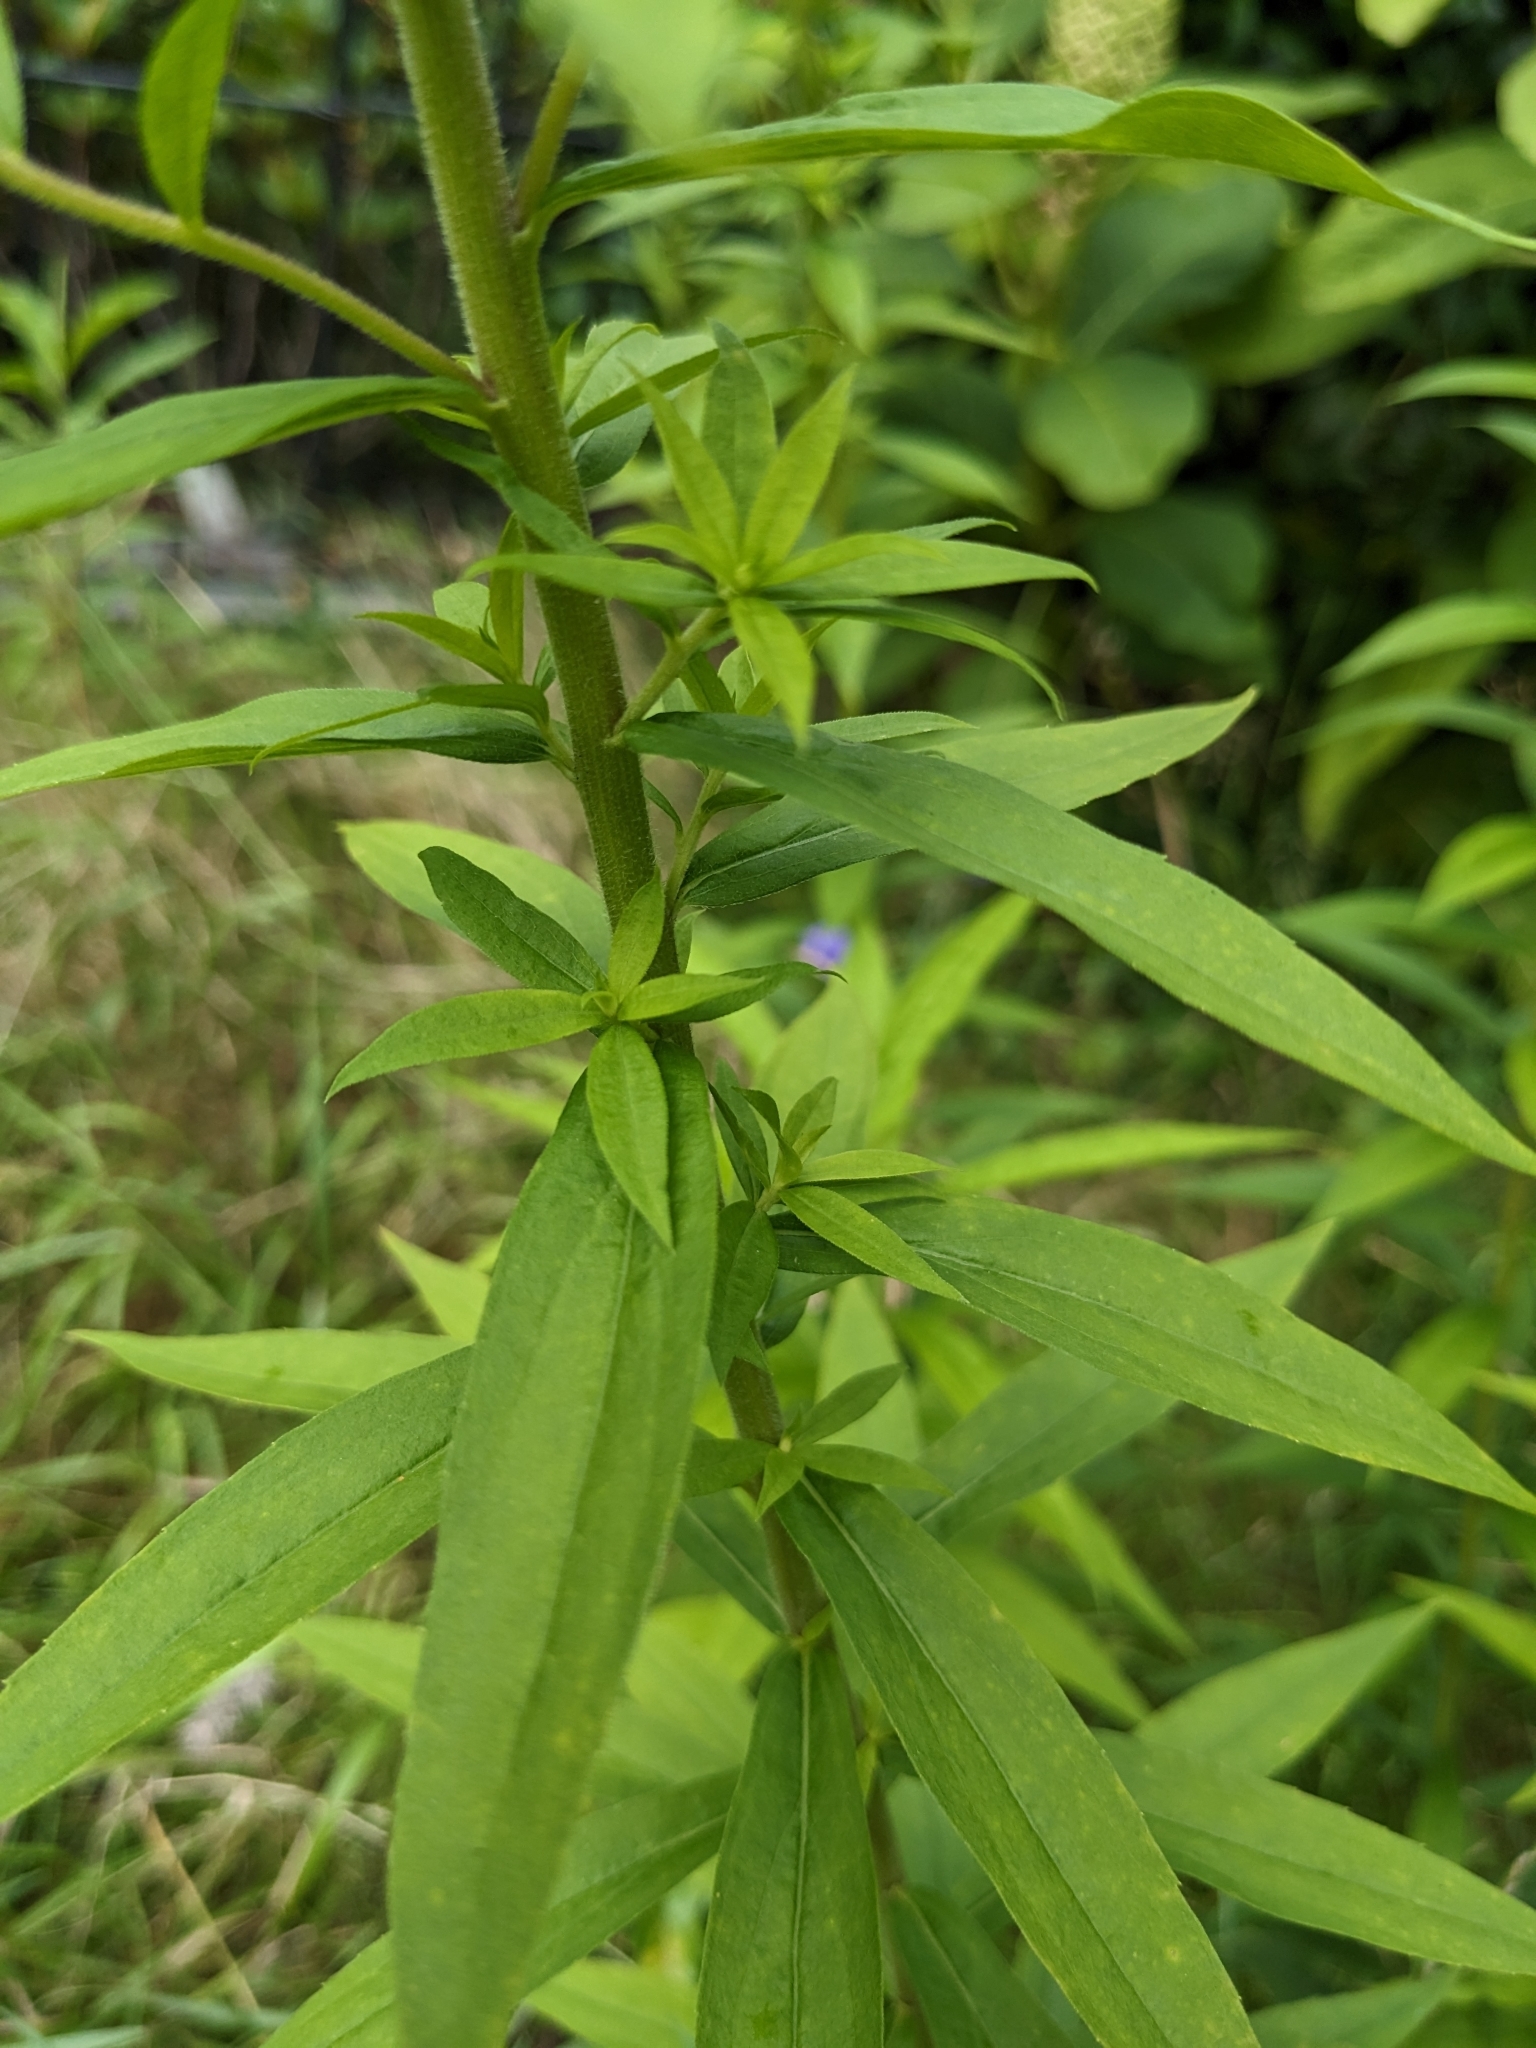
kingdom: Plantae
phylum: Tracheophyta
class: Magnoliopsida
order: Asterales
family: Asteraceae
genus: Solidago
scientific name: Solidago canadensis
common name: Canada goldenrod
